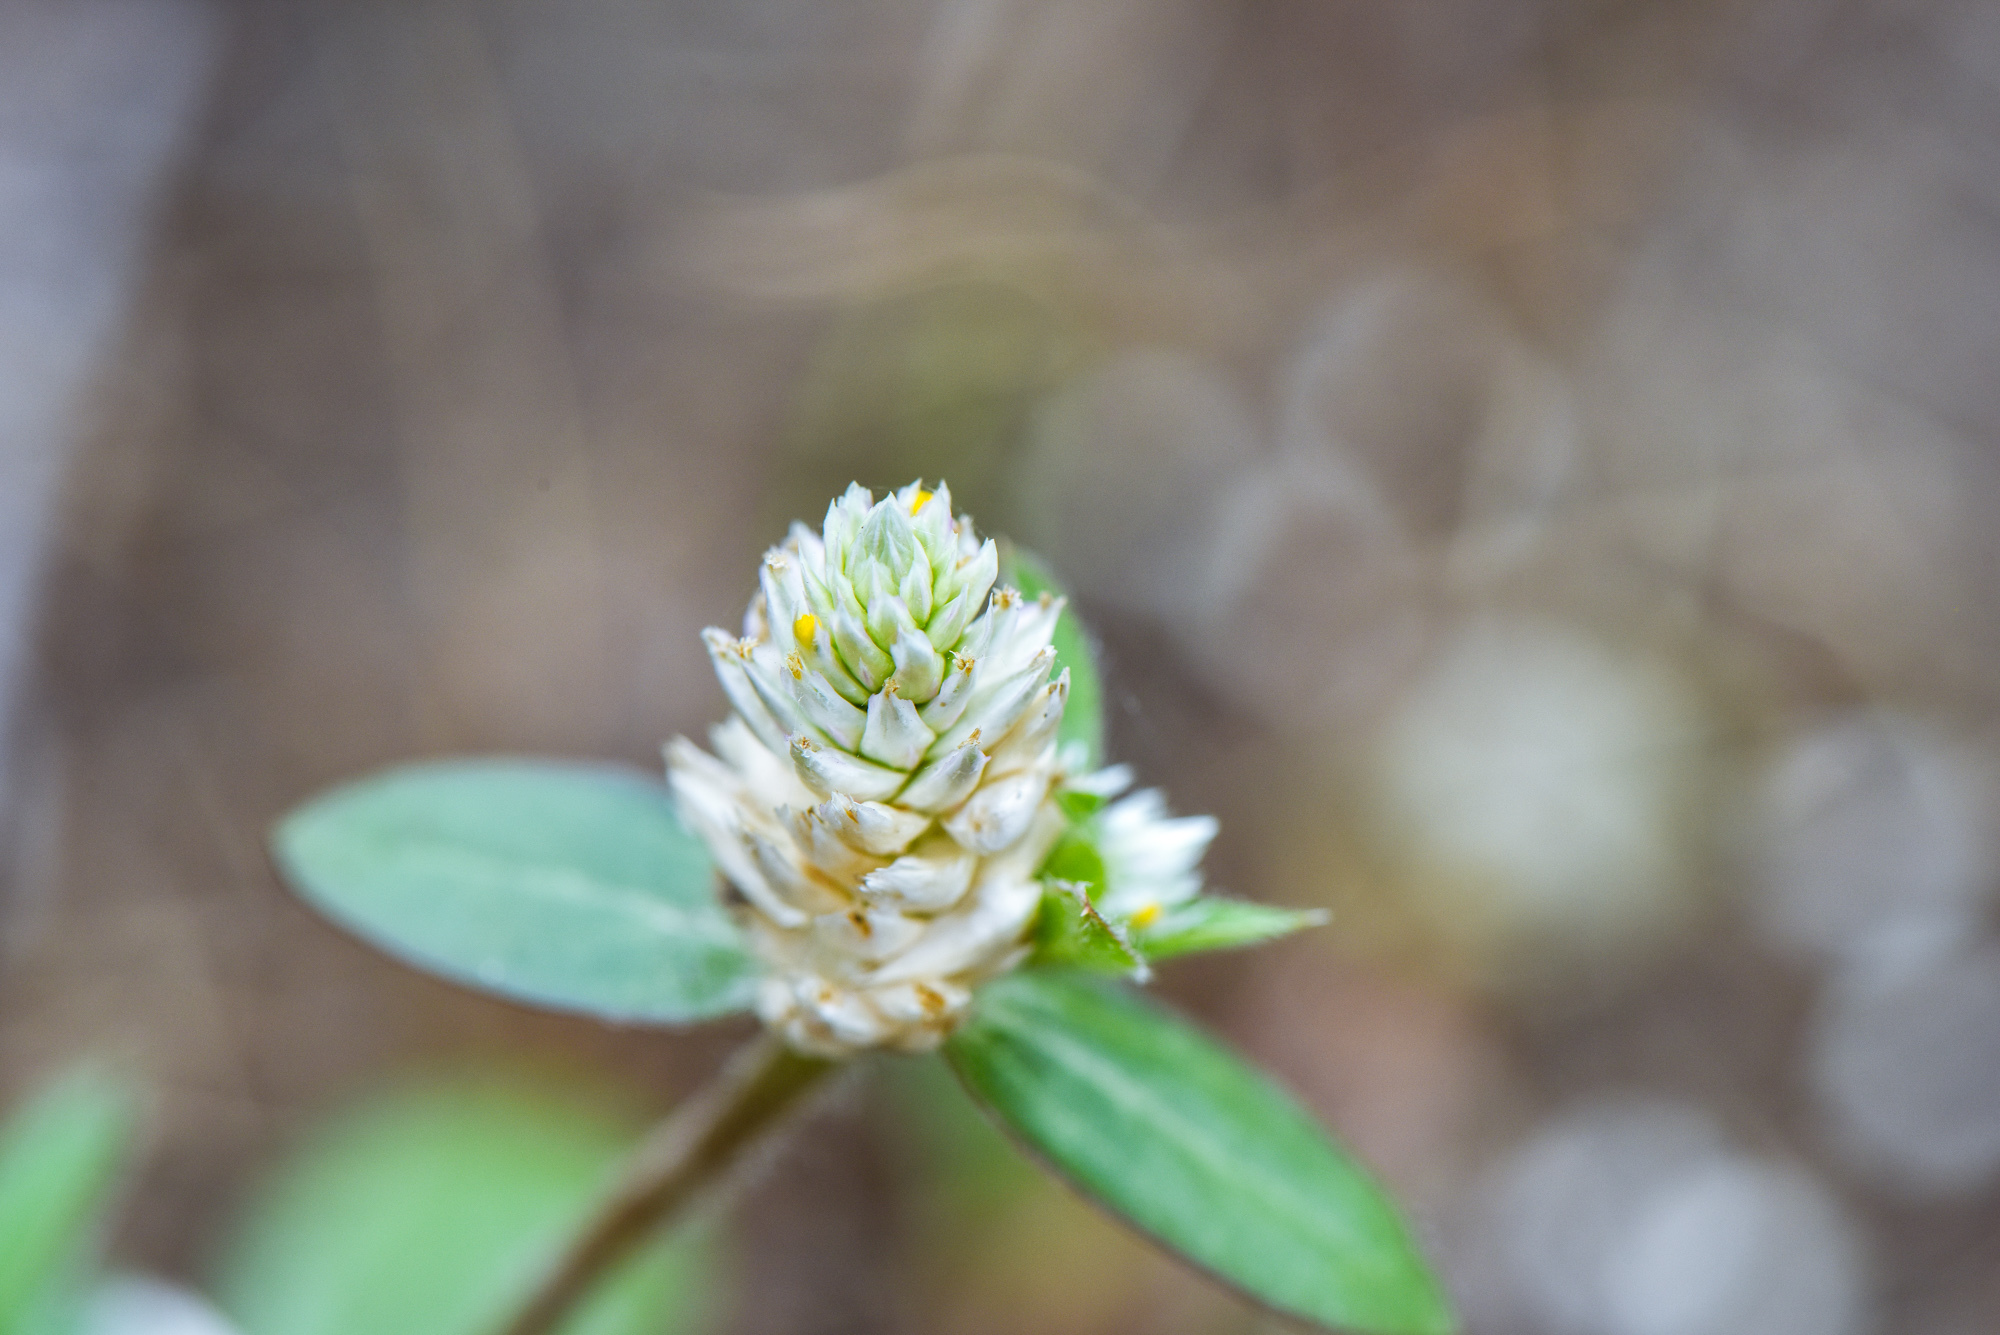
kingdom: Plantae
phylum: Tracheophyta
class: Magnoliopsida
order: Caryophyllales
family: Amaranthaceae
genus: Gomphrena
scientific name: Gomphrena celosioides
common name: Gomphrena-weed
